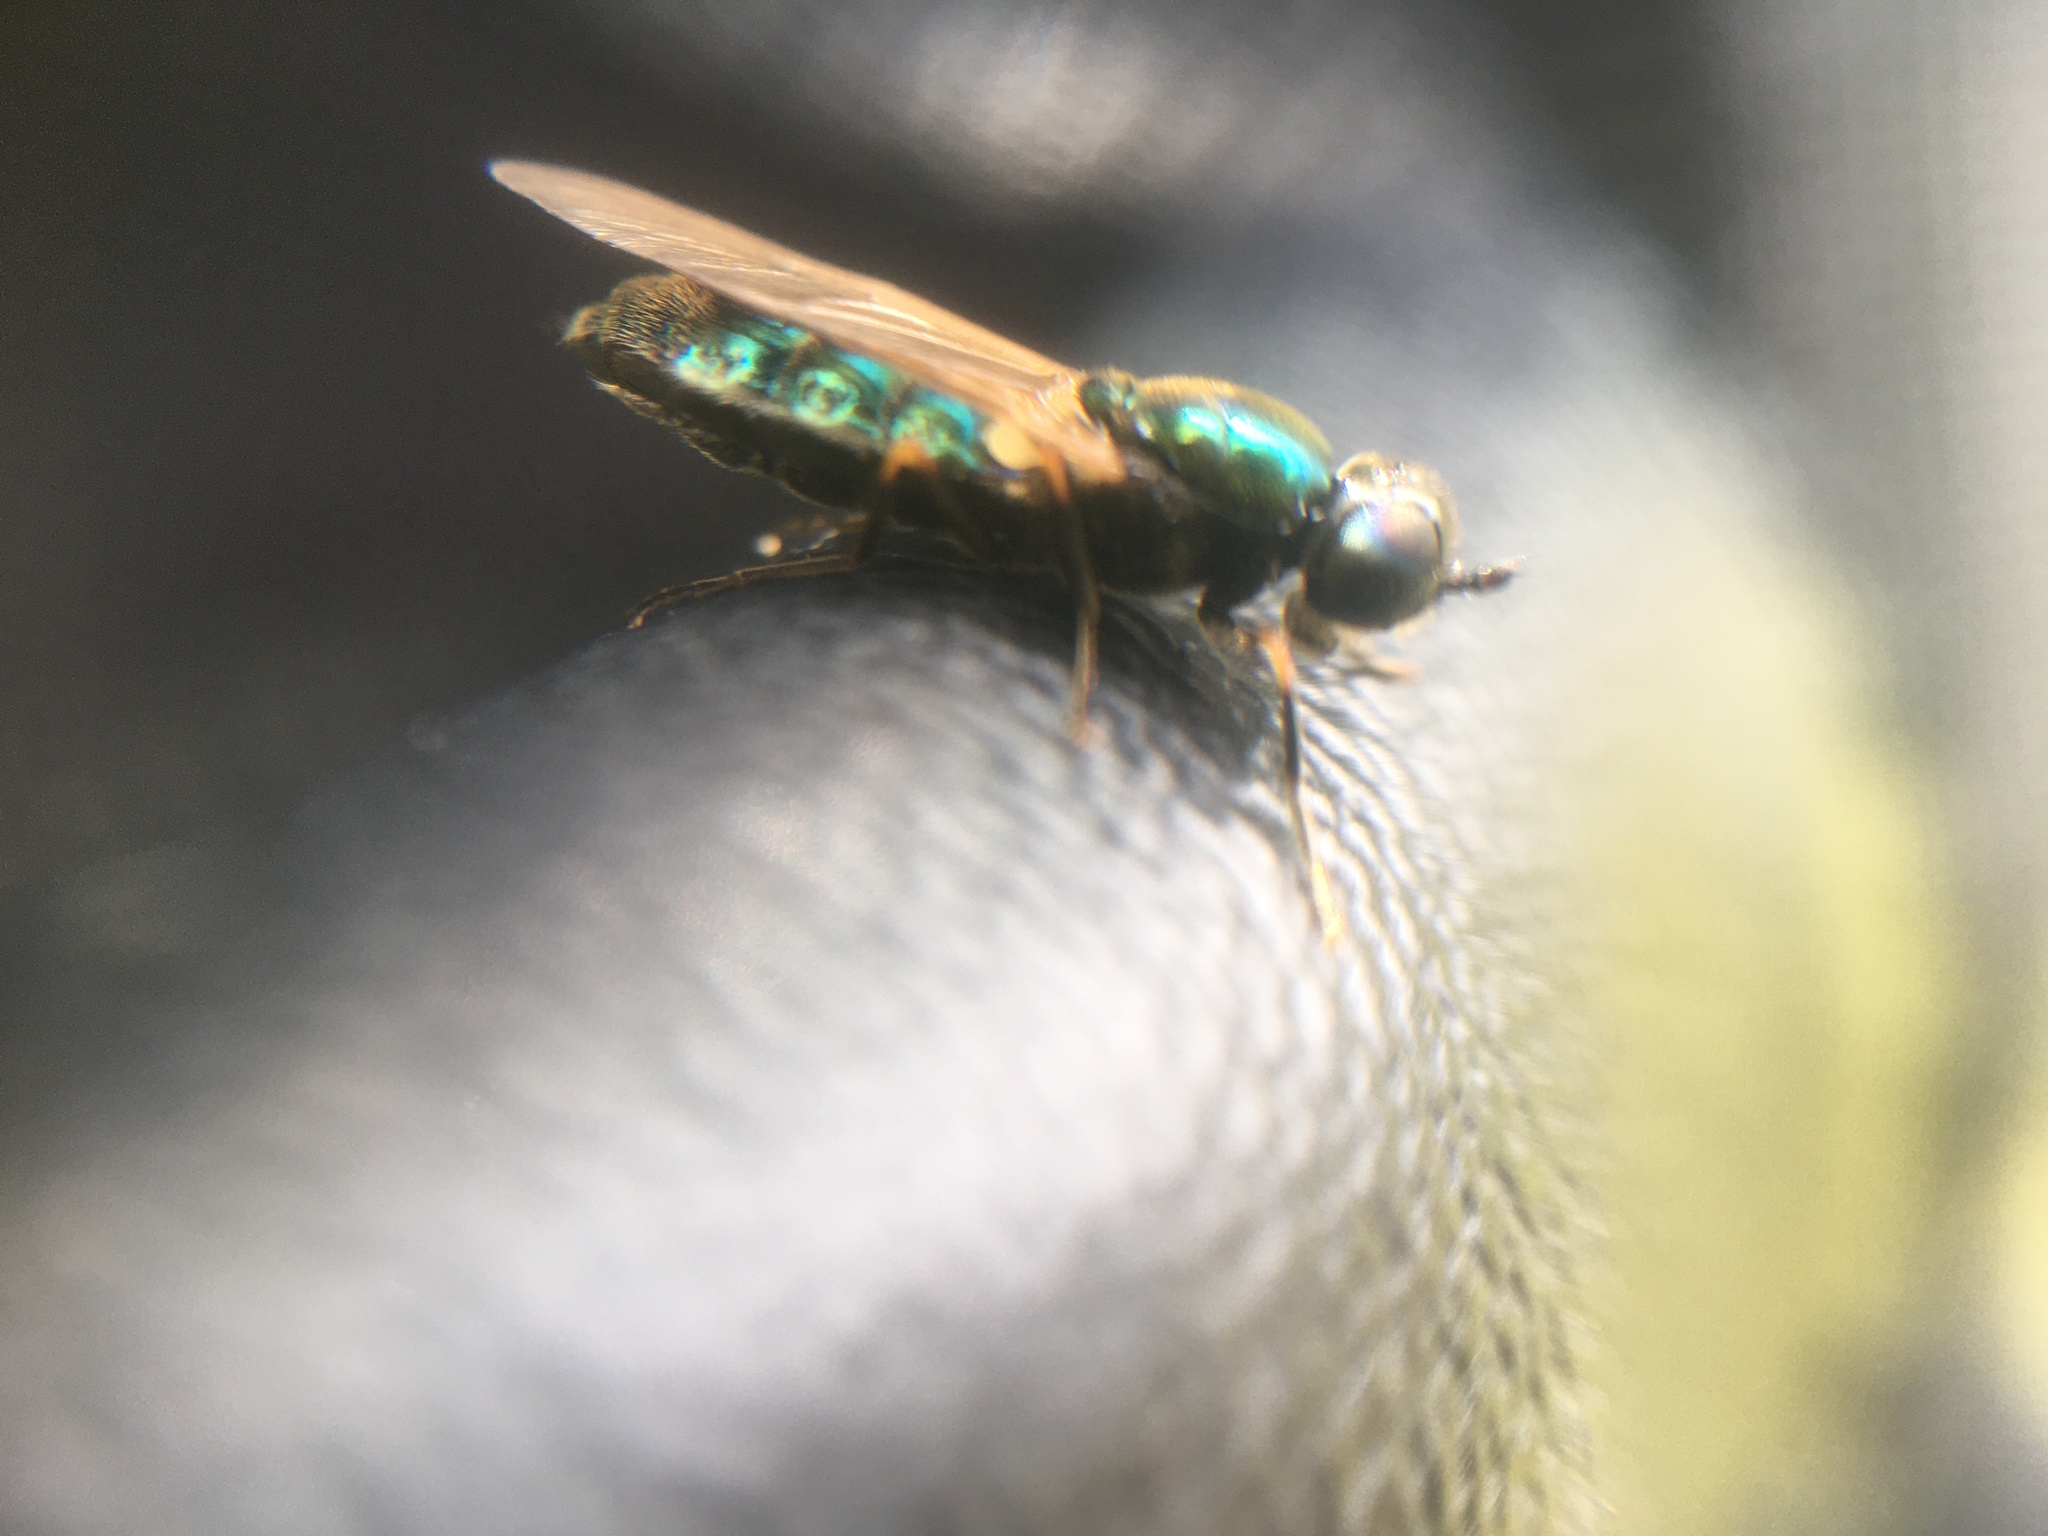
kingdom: Animalia
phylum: Arthropoda
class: Insecta
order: Diptera
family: Stratiomyidae
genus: Chloromyia
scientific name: Chloromyia formosa
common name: Soldier fly
